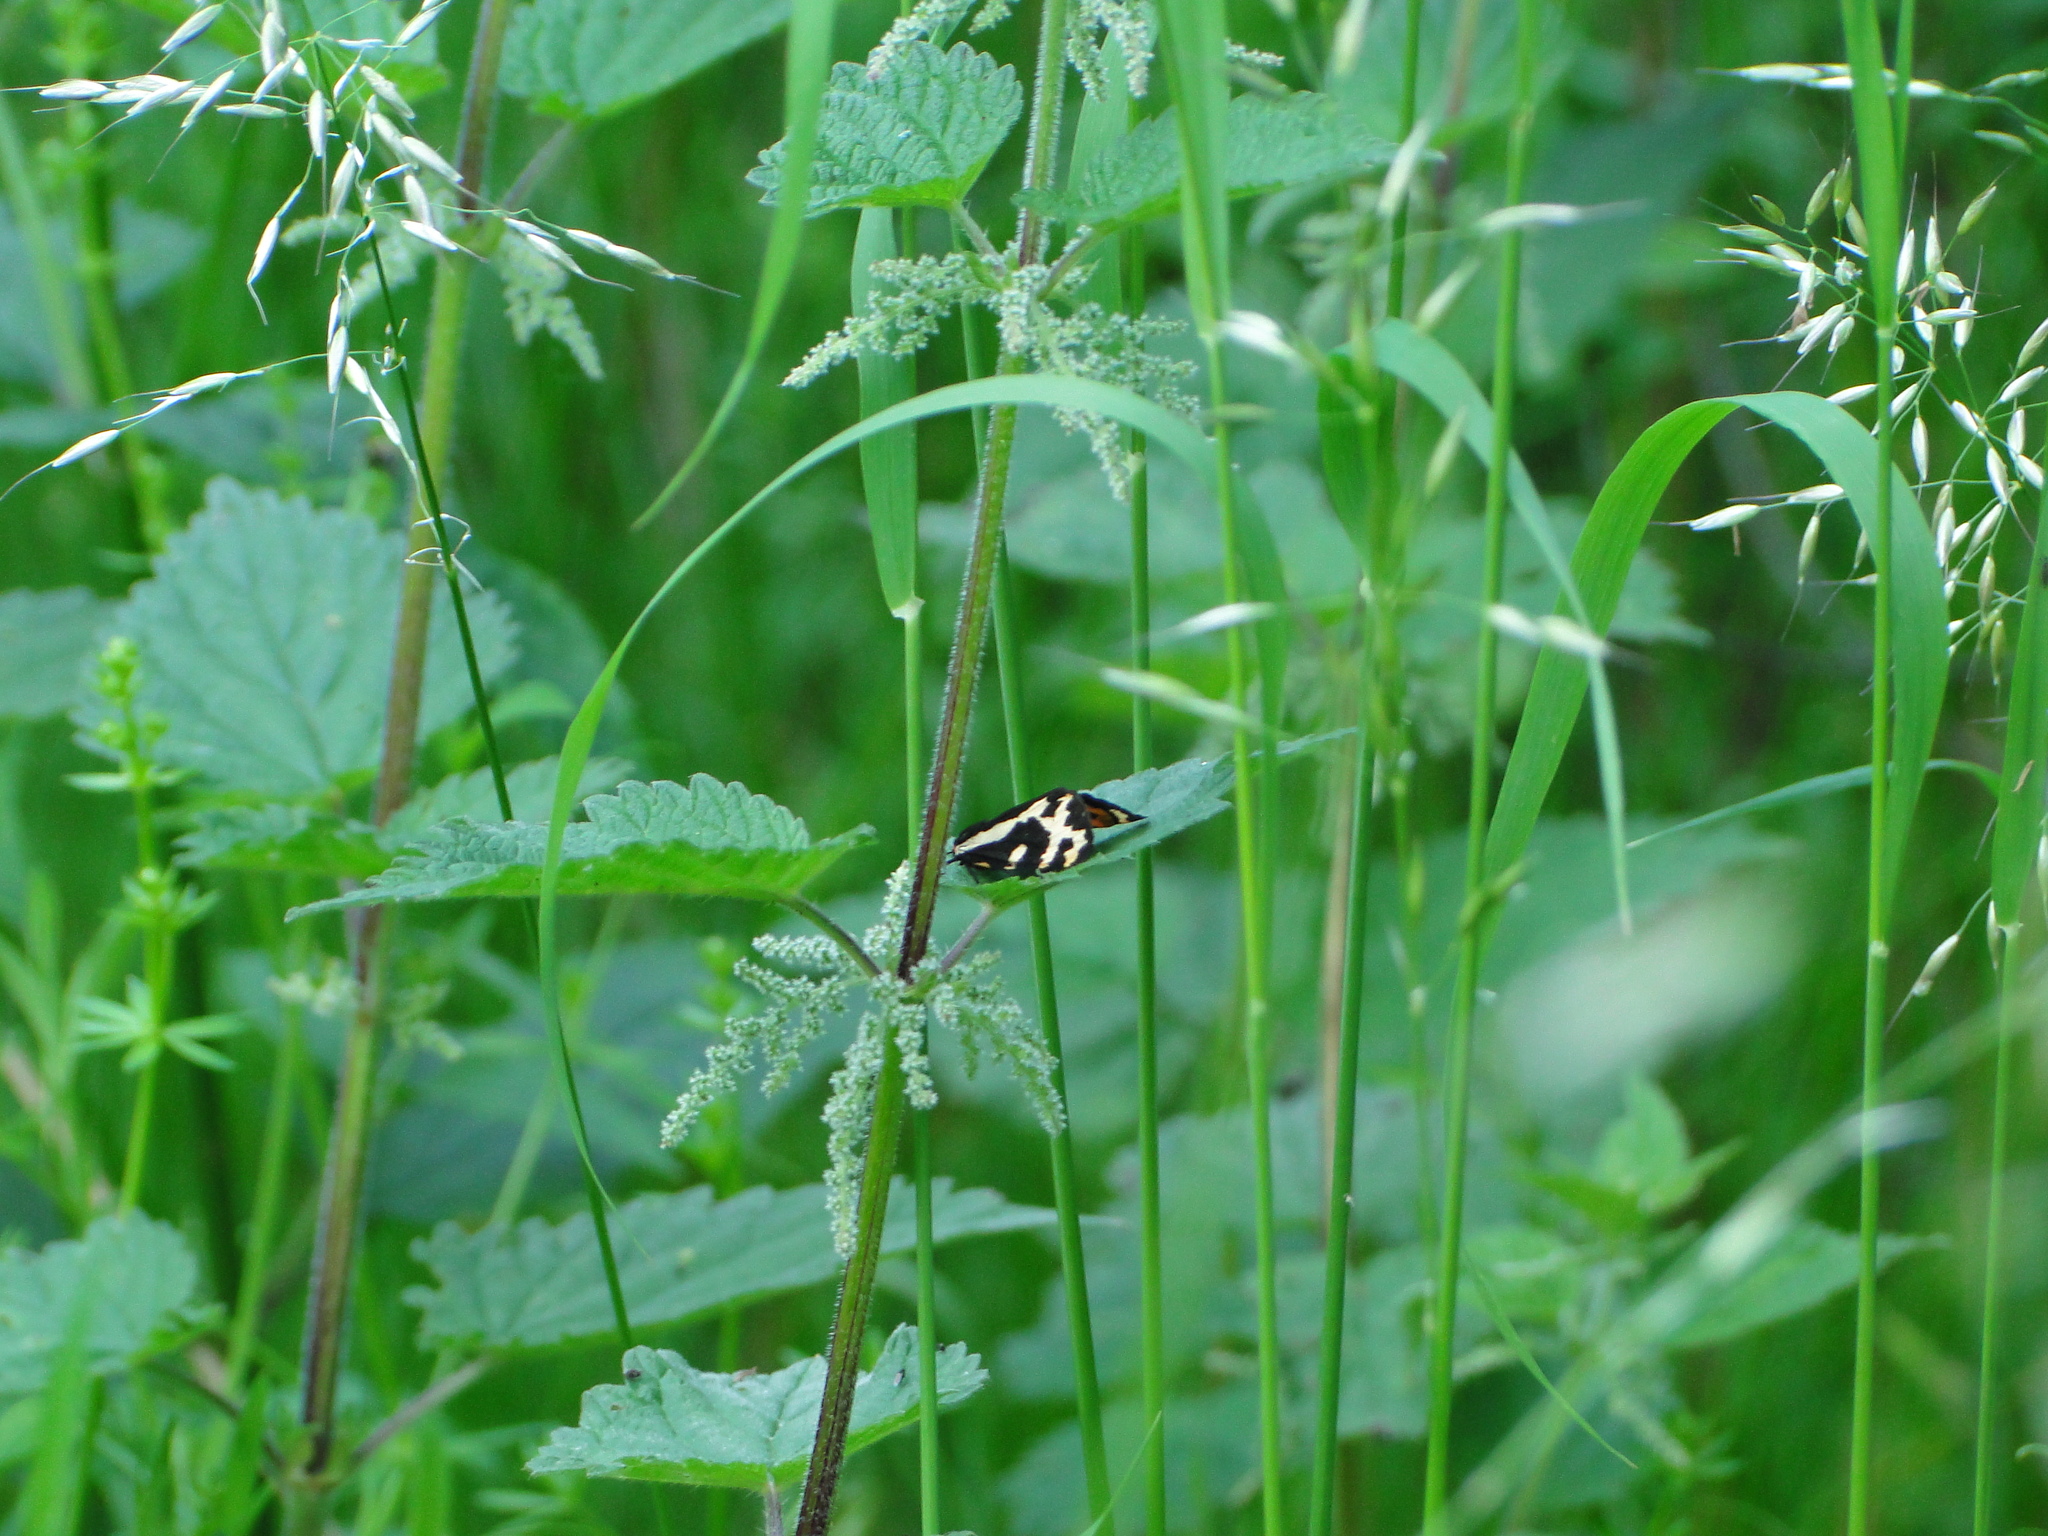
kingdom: Animalia
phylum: Arthropoda
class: Insecta
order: Lepidoptera
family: Erebidae
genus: Parasemia
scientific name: Parasemia plantaginis
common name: Wood tiger
